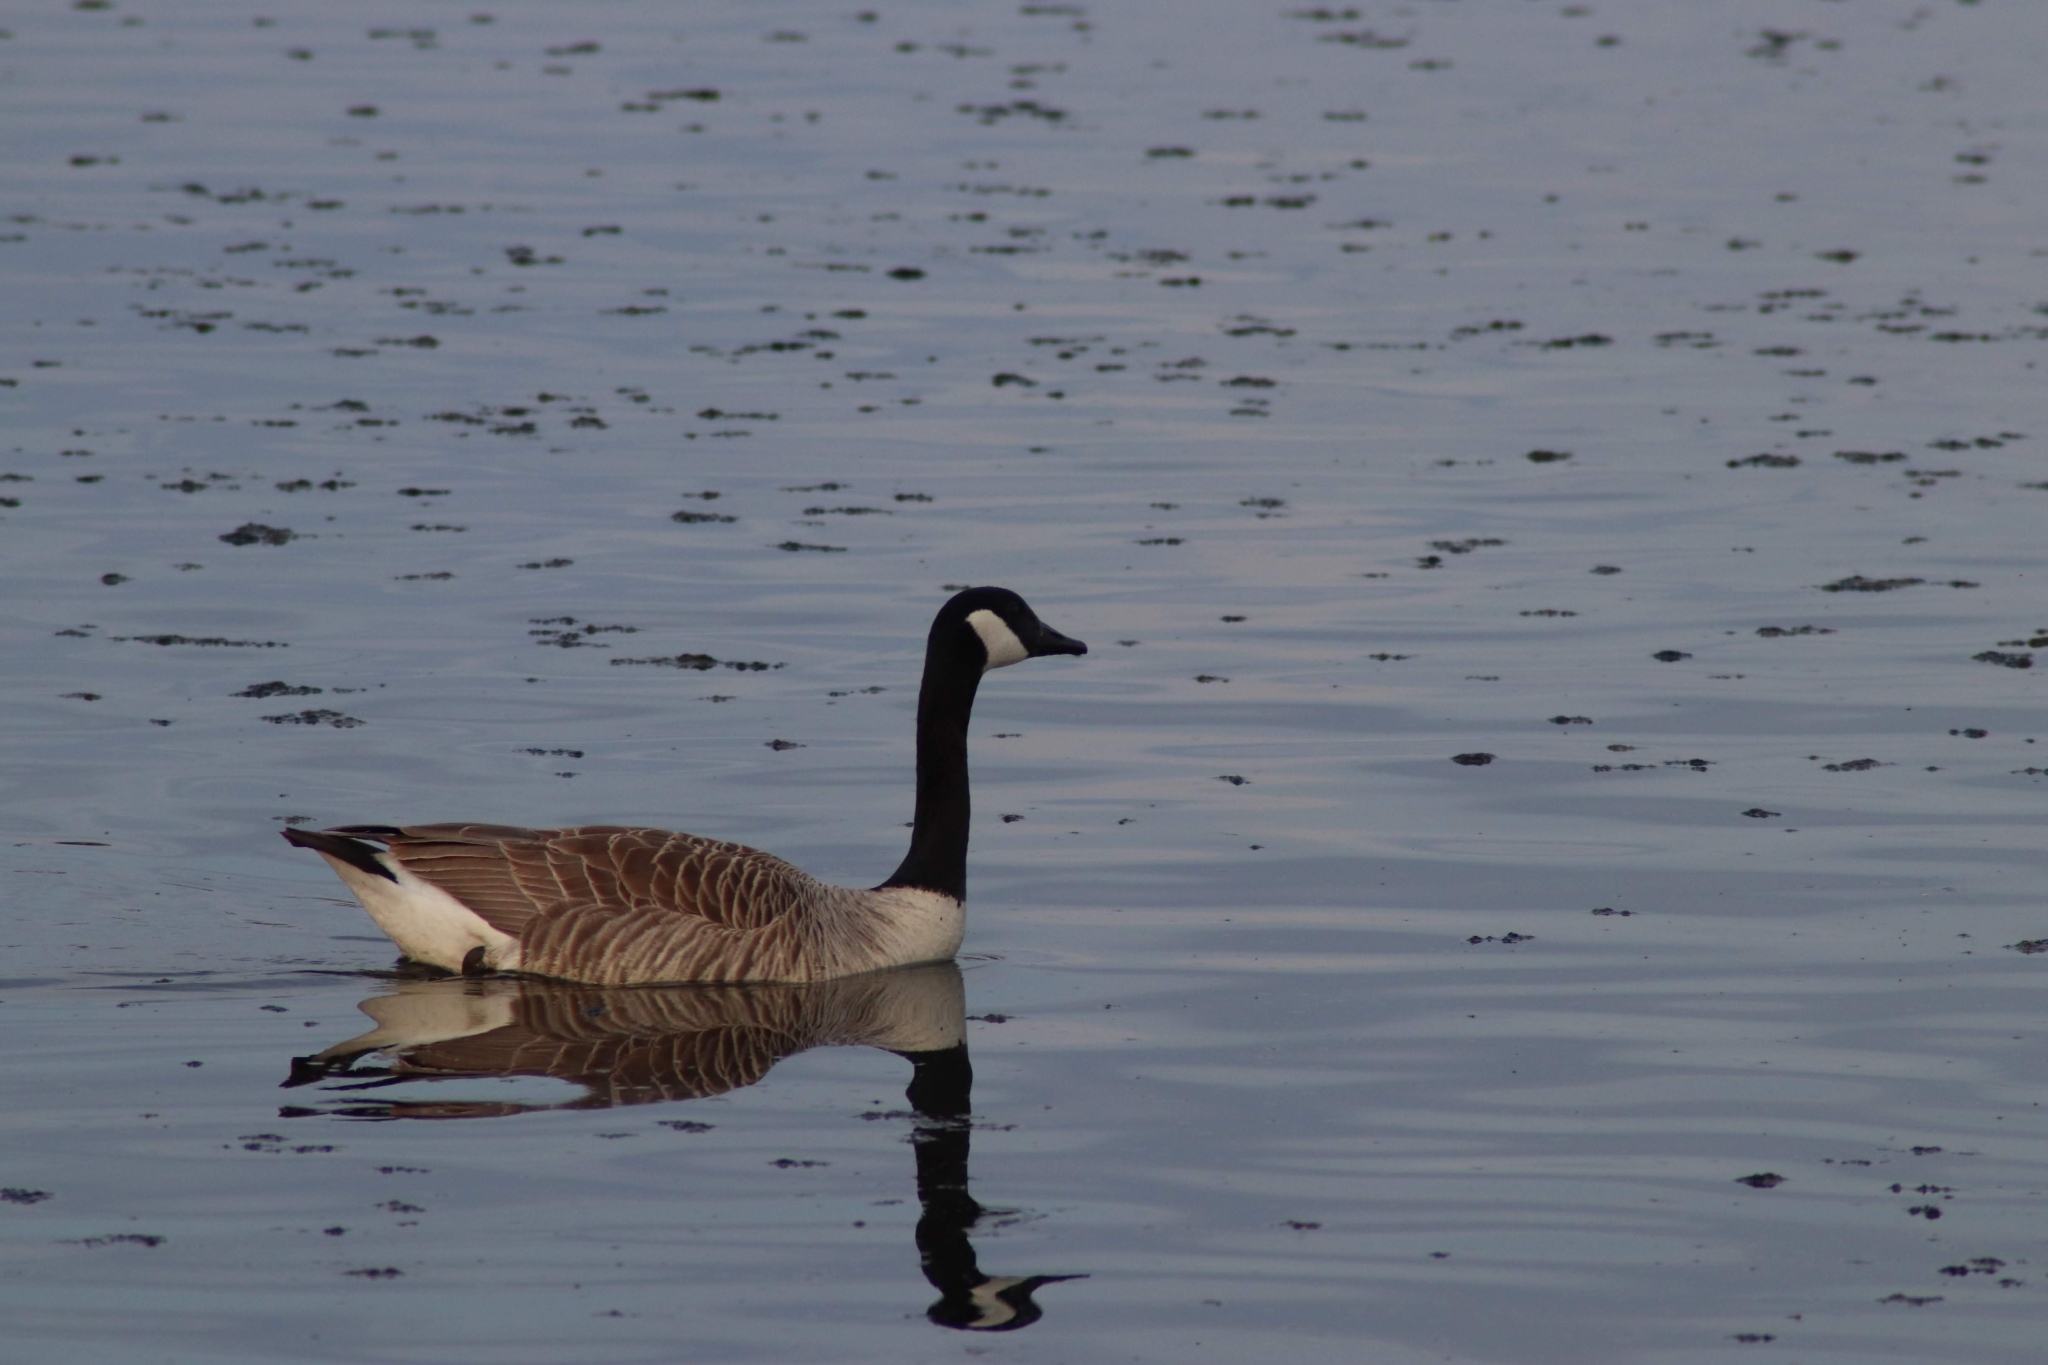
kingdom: Animalia
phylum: Chordata
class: Aves
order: Anseriformes
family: Anatidae
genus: Branta
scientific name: Branta canadensis
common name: Canada goose
